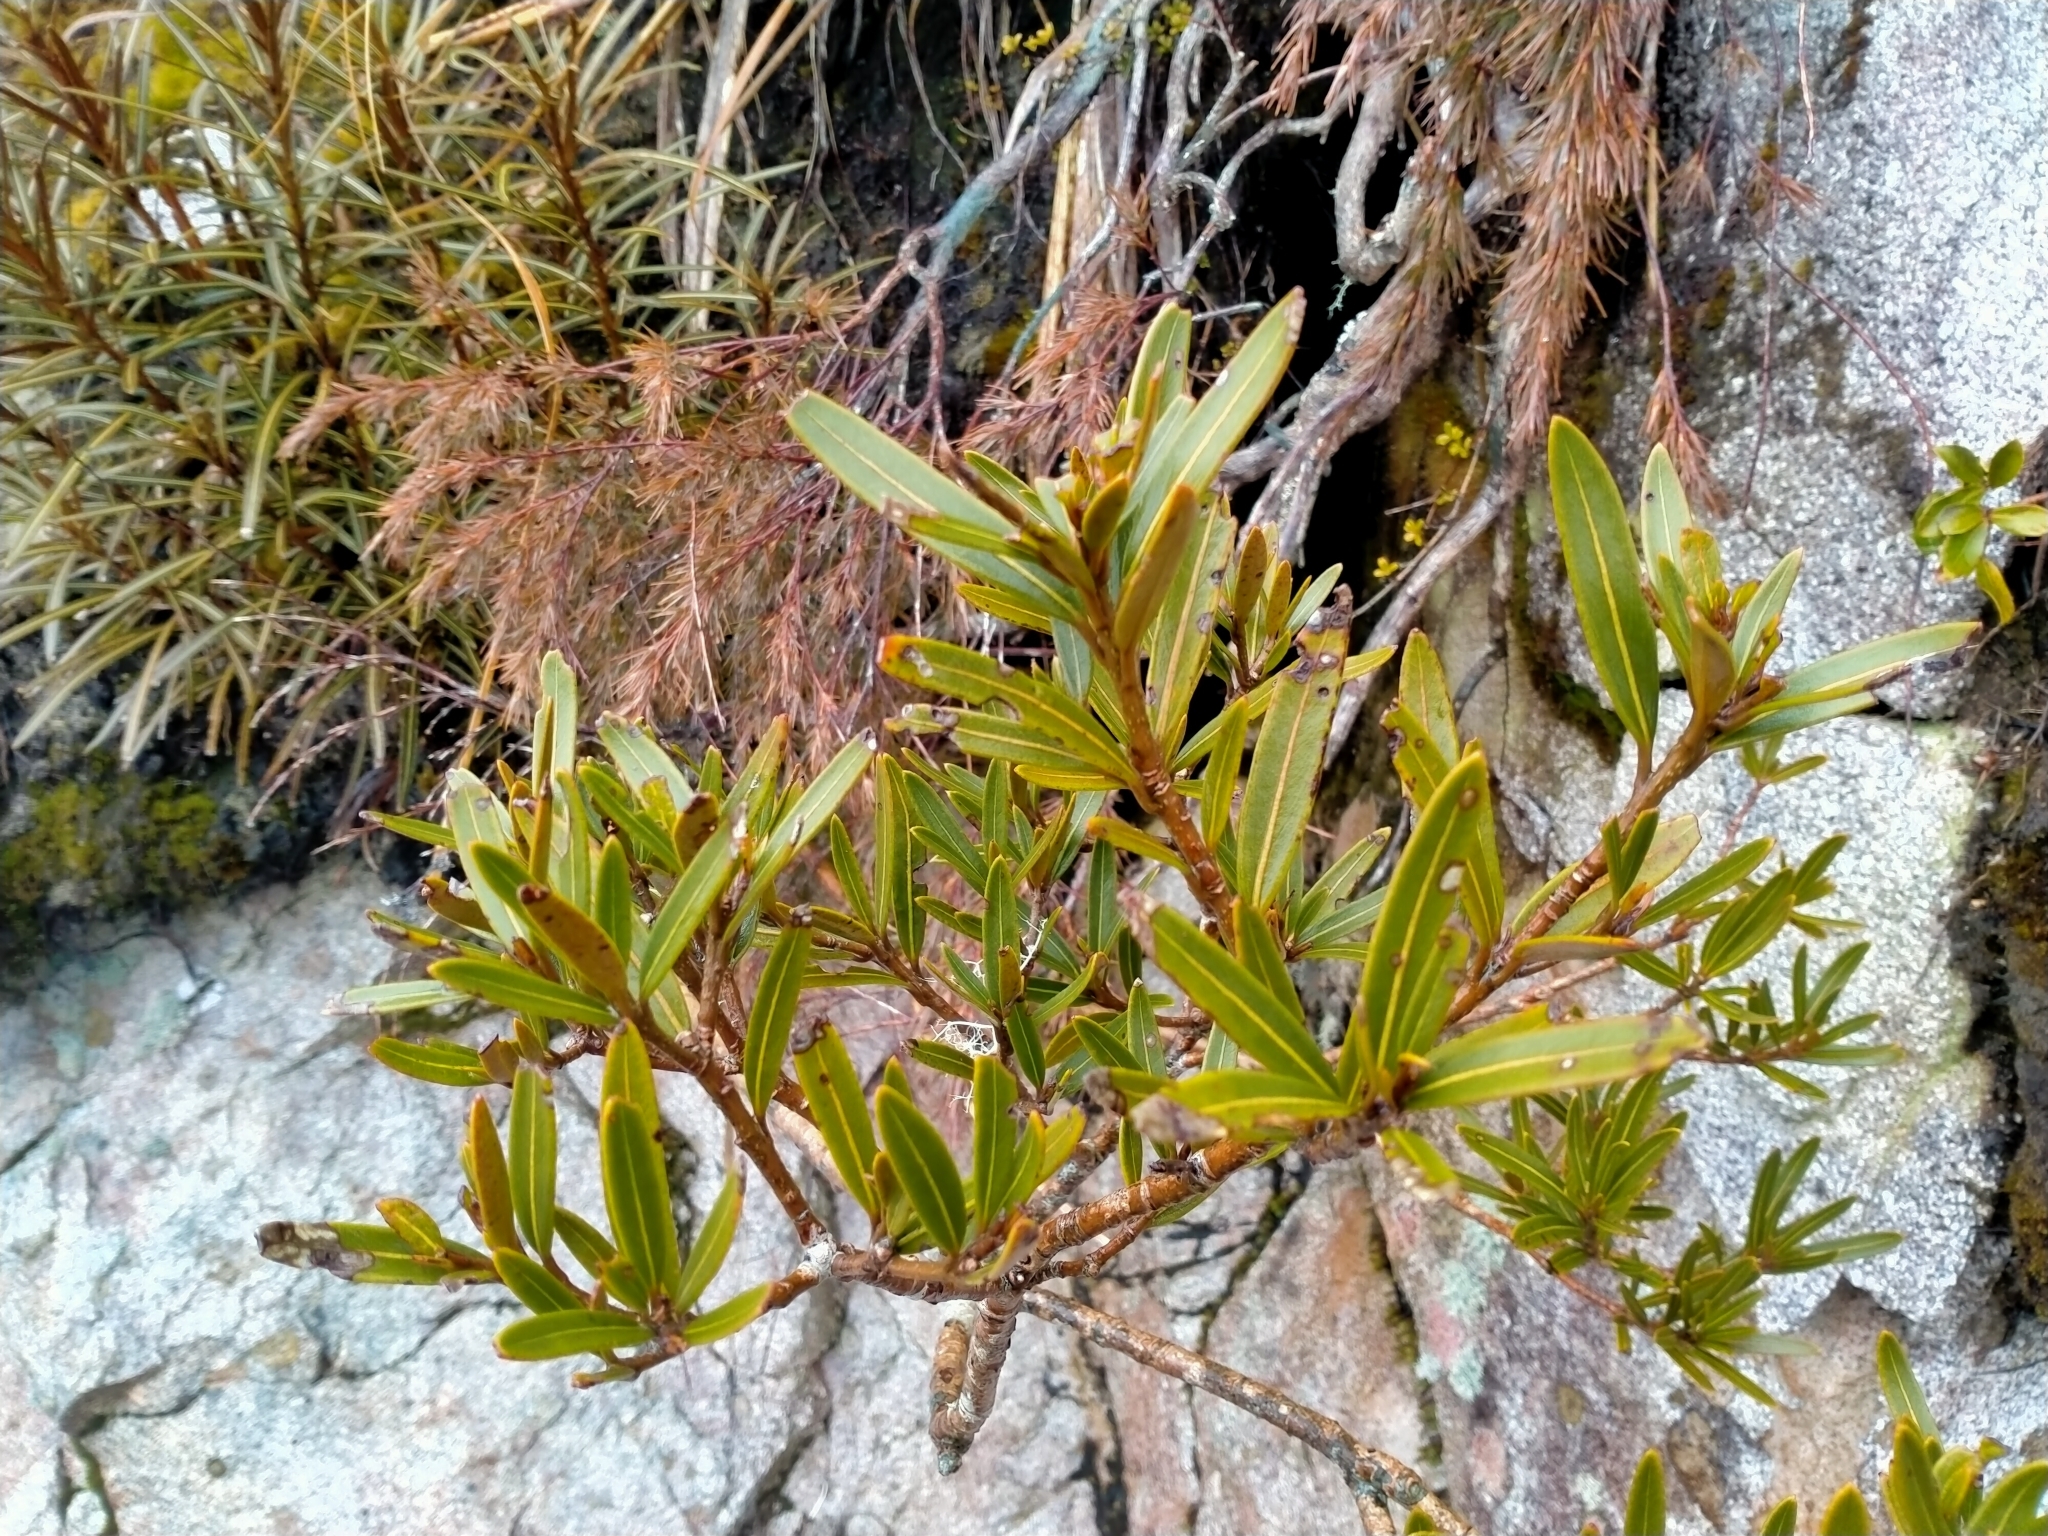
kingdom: Plantae
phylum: Tracheophyta
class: Magnoliopsida
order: Apiales
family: Araliaceae
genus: Pseudopanax
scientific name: Pseudopanax linearis
